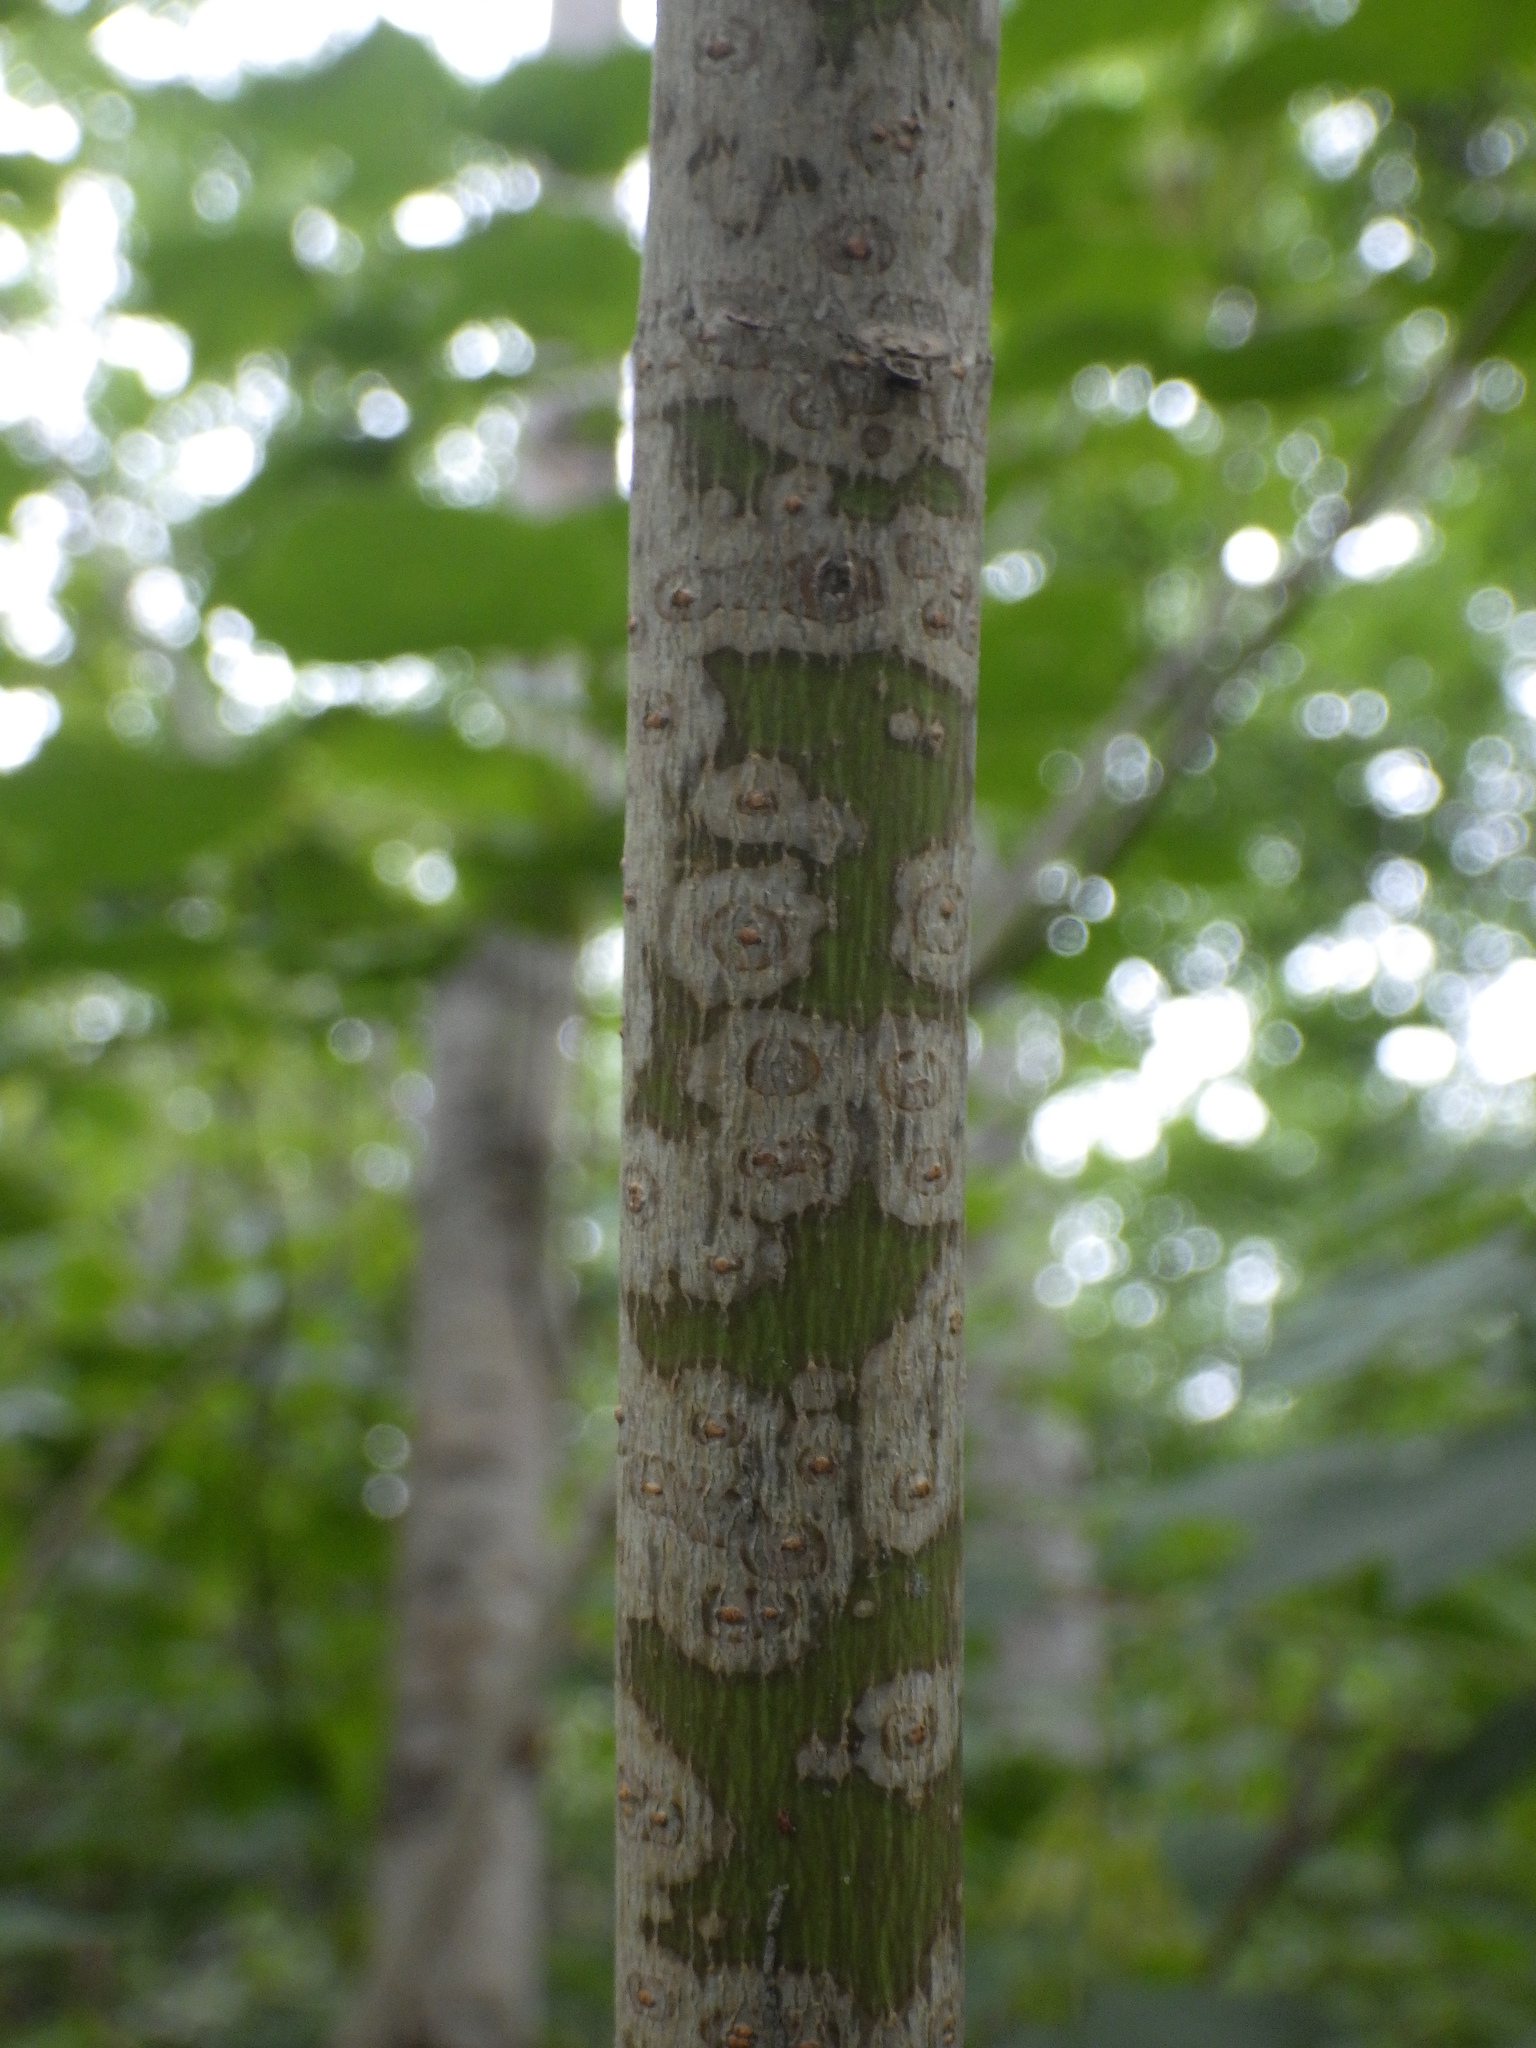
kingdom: Plantae
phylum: Tracheophyta
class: Magnoliopsida
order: Sapindales
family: Sapindaceae
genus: Acer
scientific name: Acer pensylvanicum
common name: Moosewood
